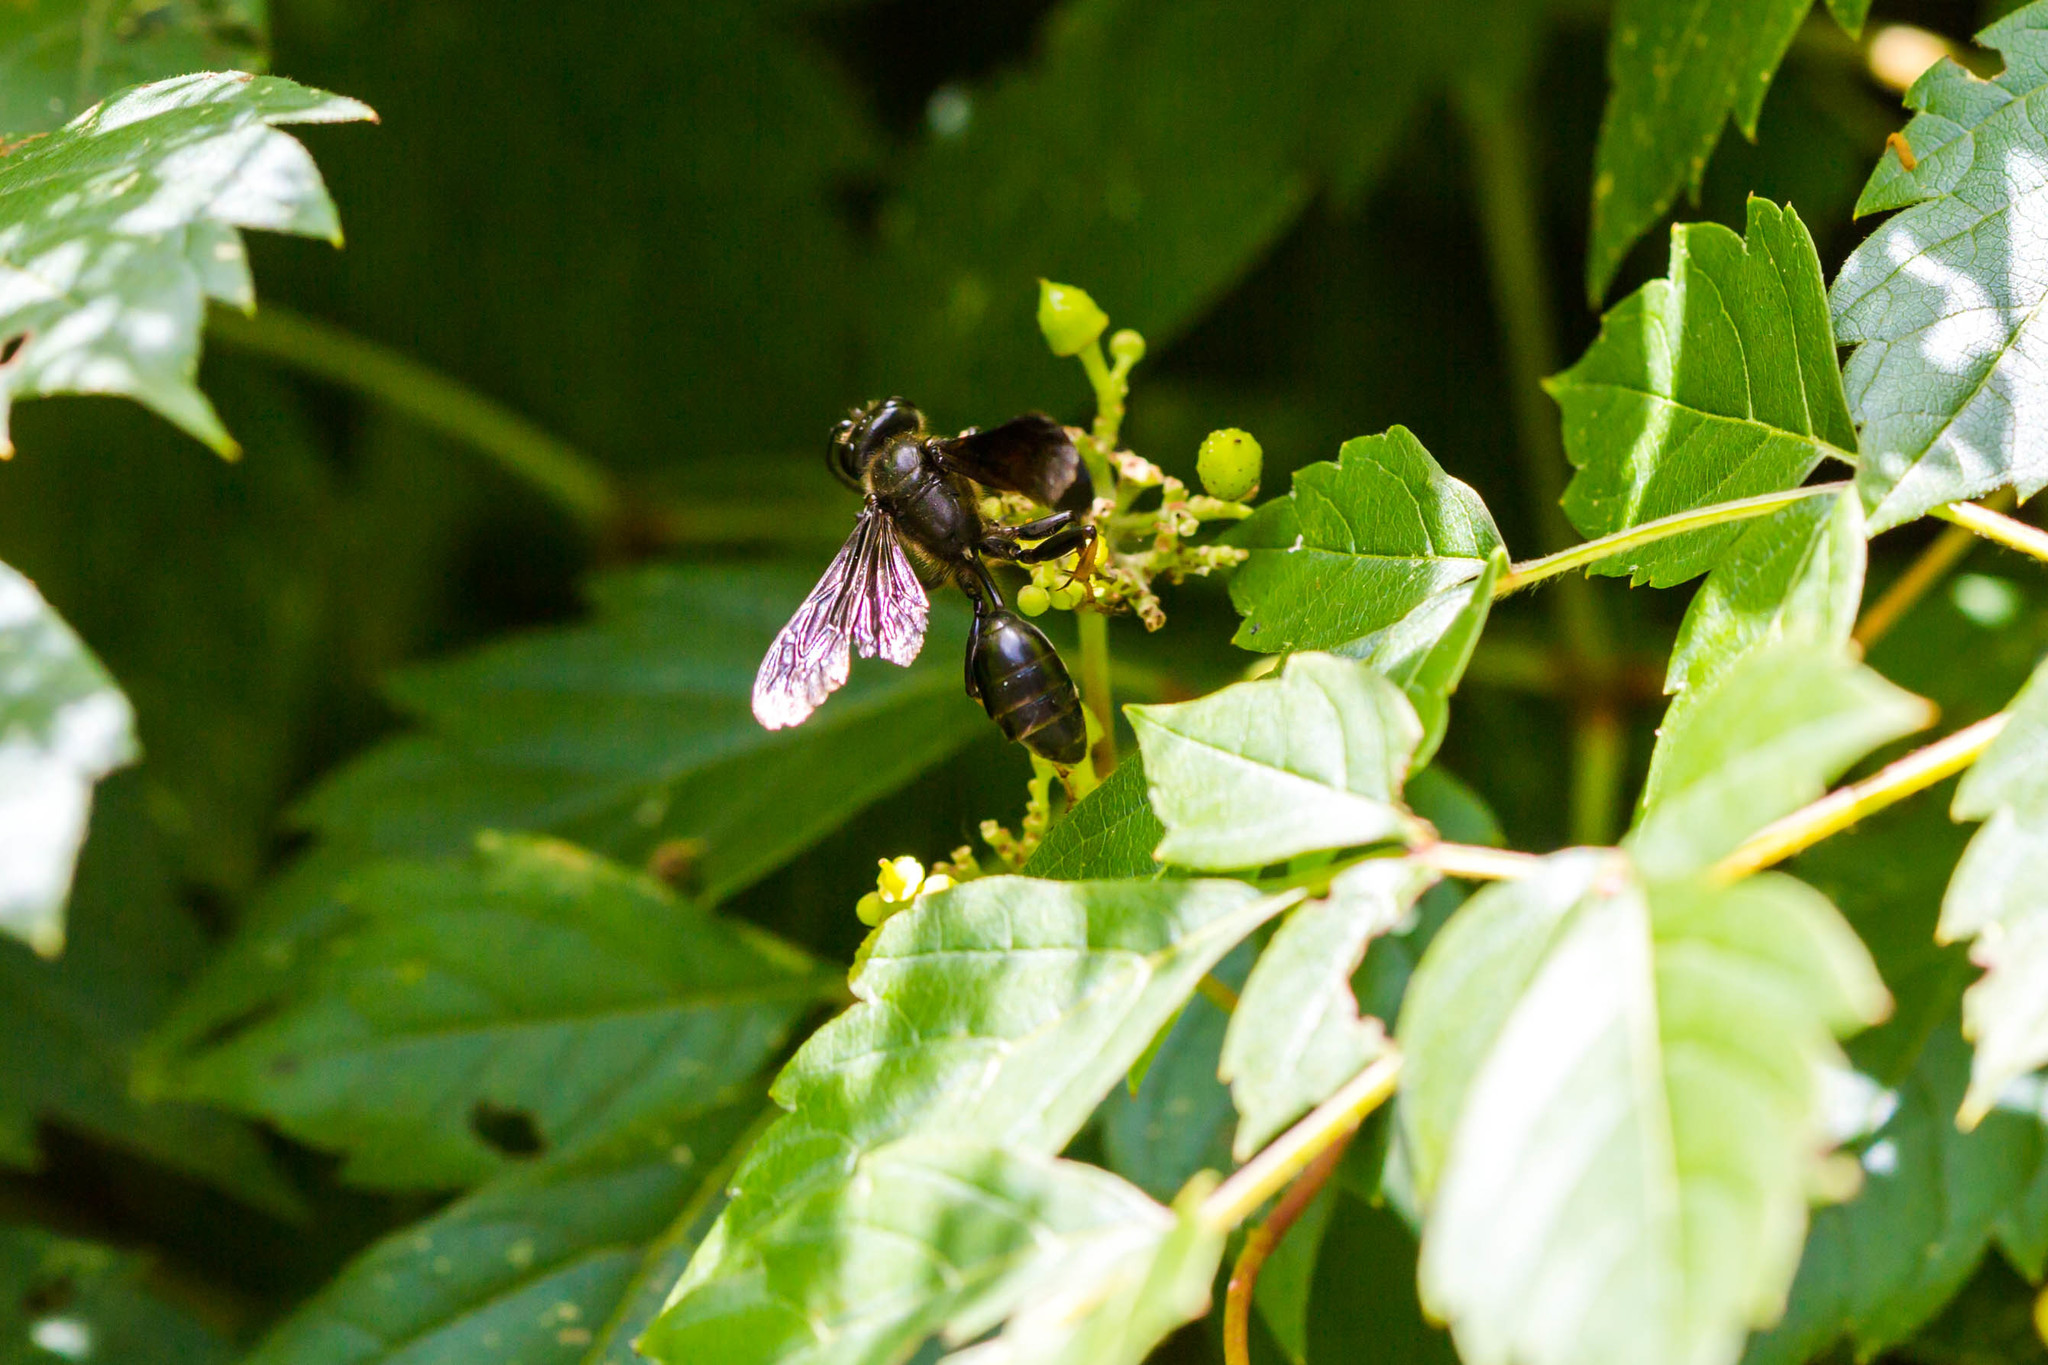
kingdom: Animalia
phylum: Arthropoda
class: Insecta
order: Hymenoptera
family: Sphecidae
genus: Isodontia
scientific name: Isodontia auripes
